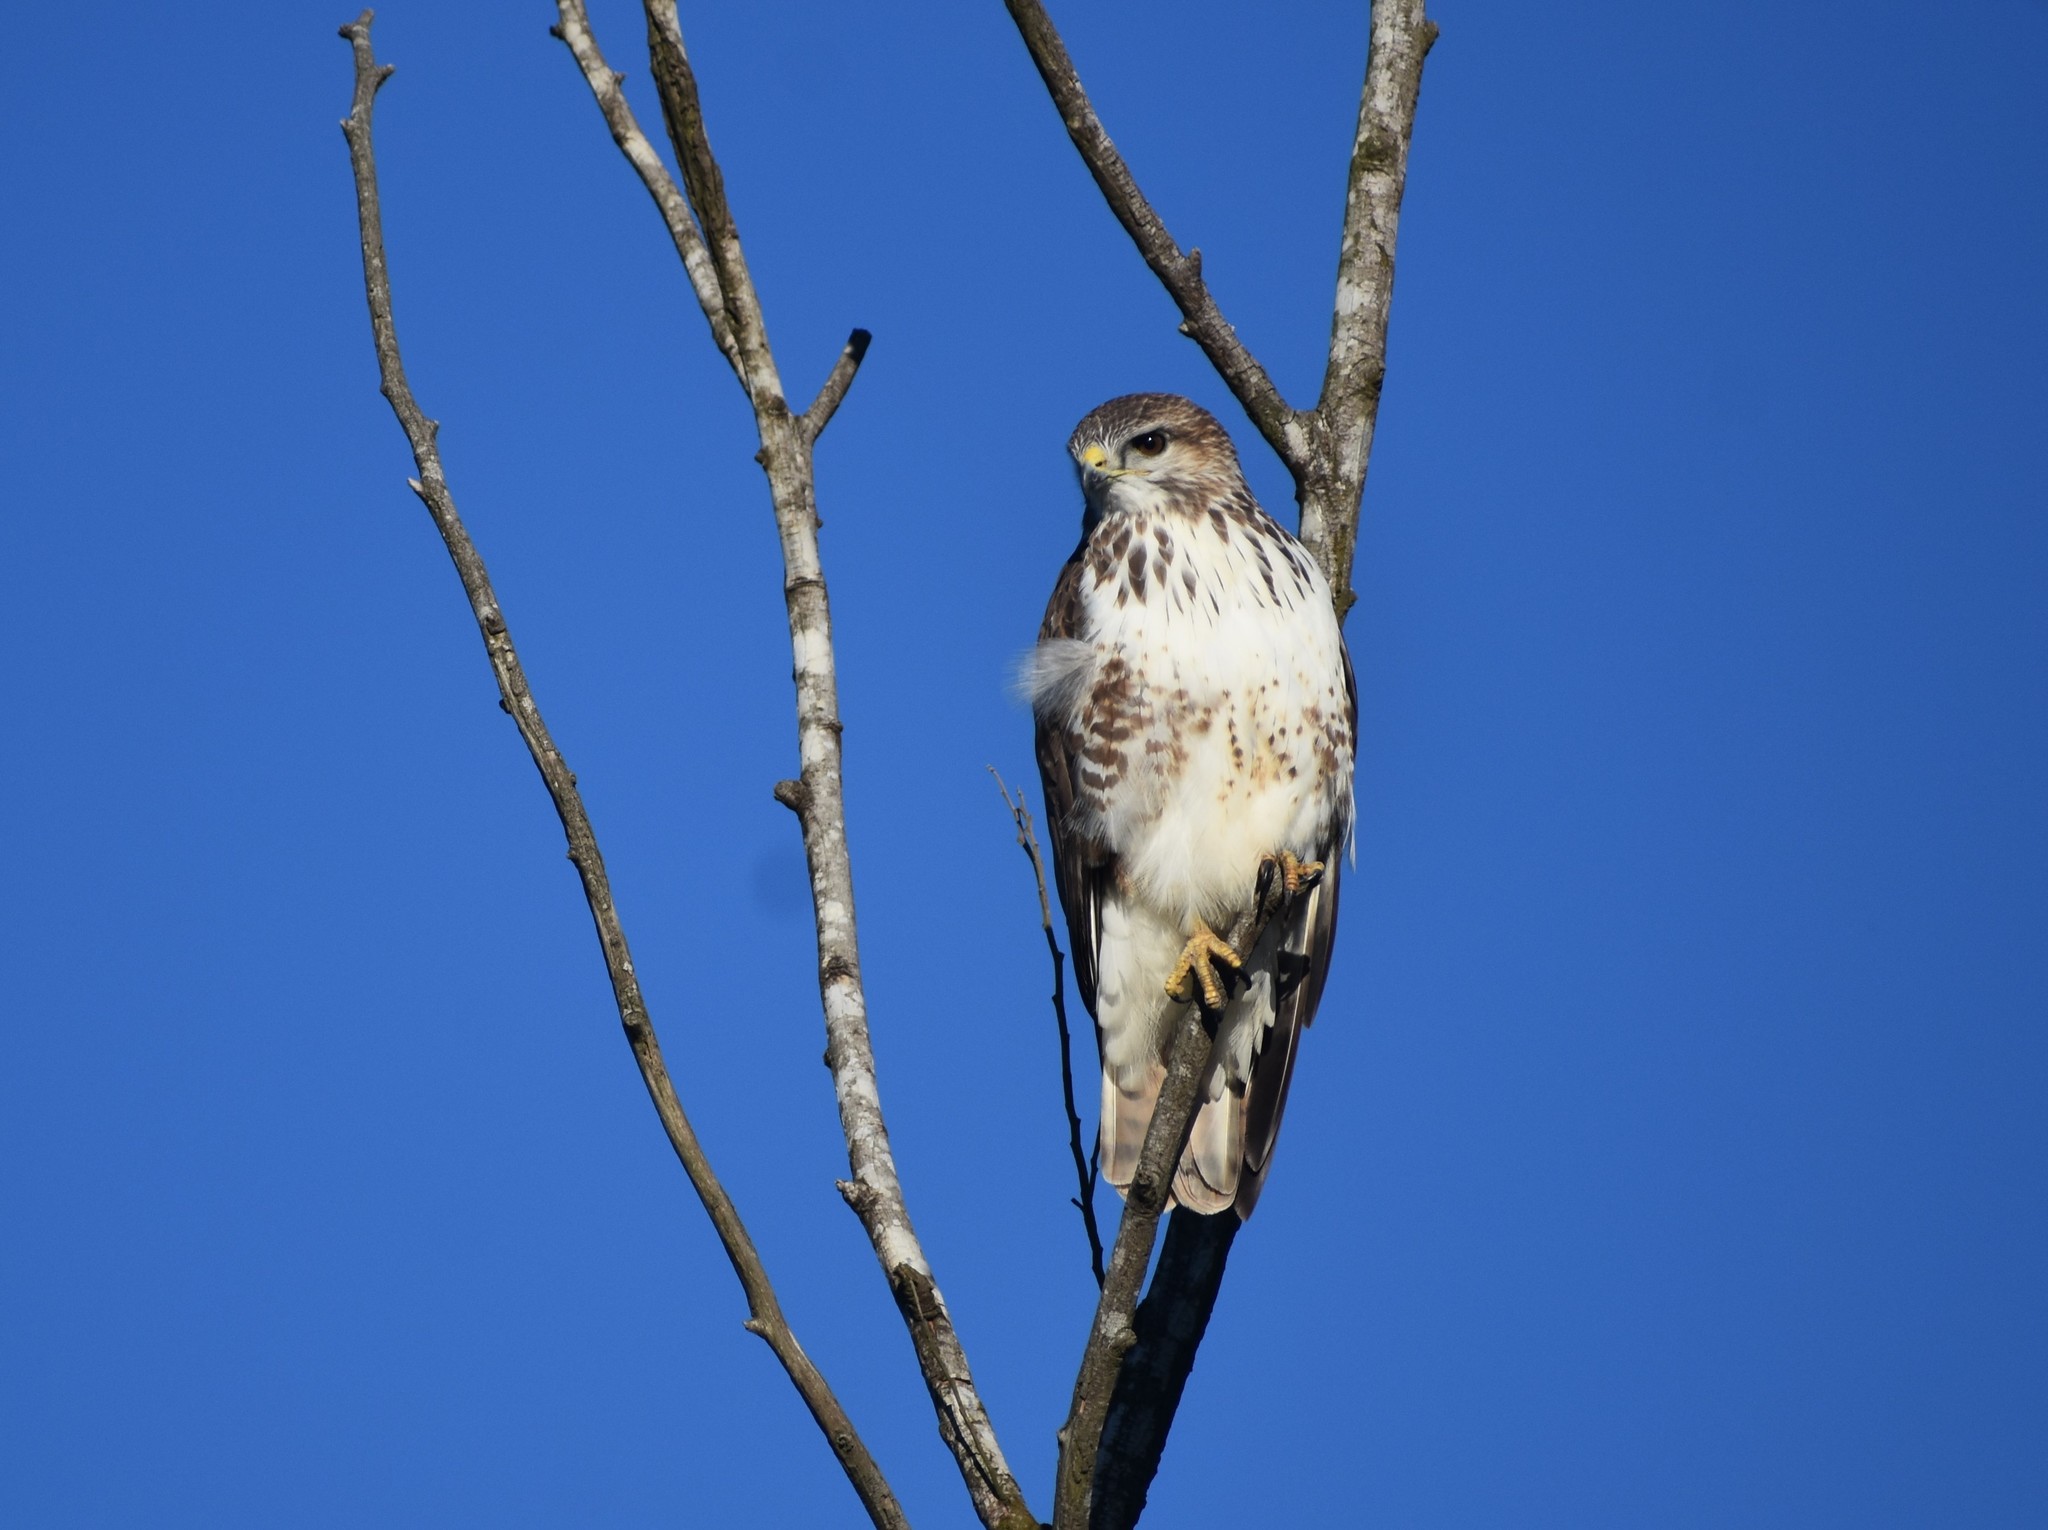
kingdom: Animalia
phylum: Chordata
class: Aves
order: Accipitriformes
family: Accipitridae
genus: Buteo
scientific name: Buteo trizonatus
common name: Forest buzzard
